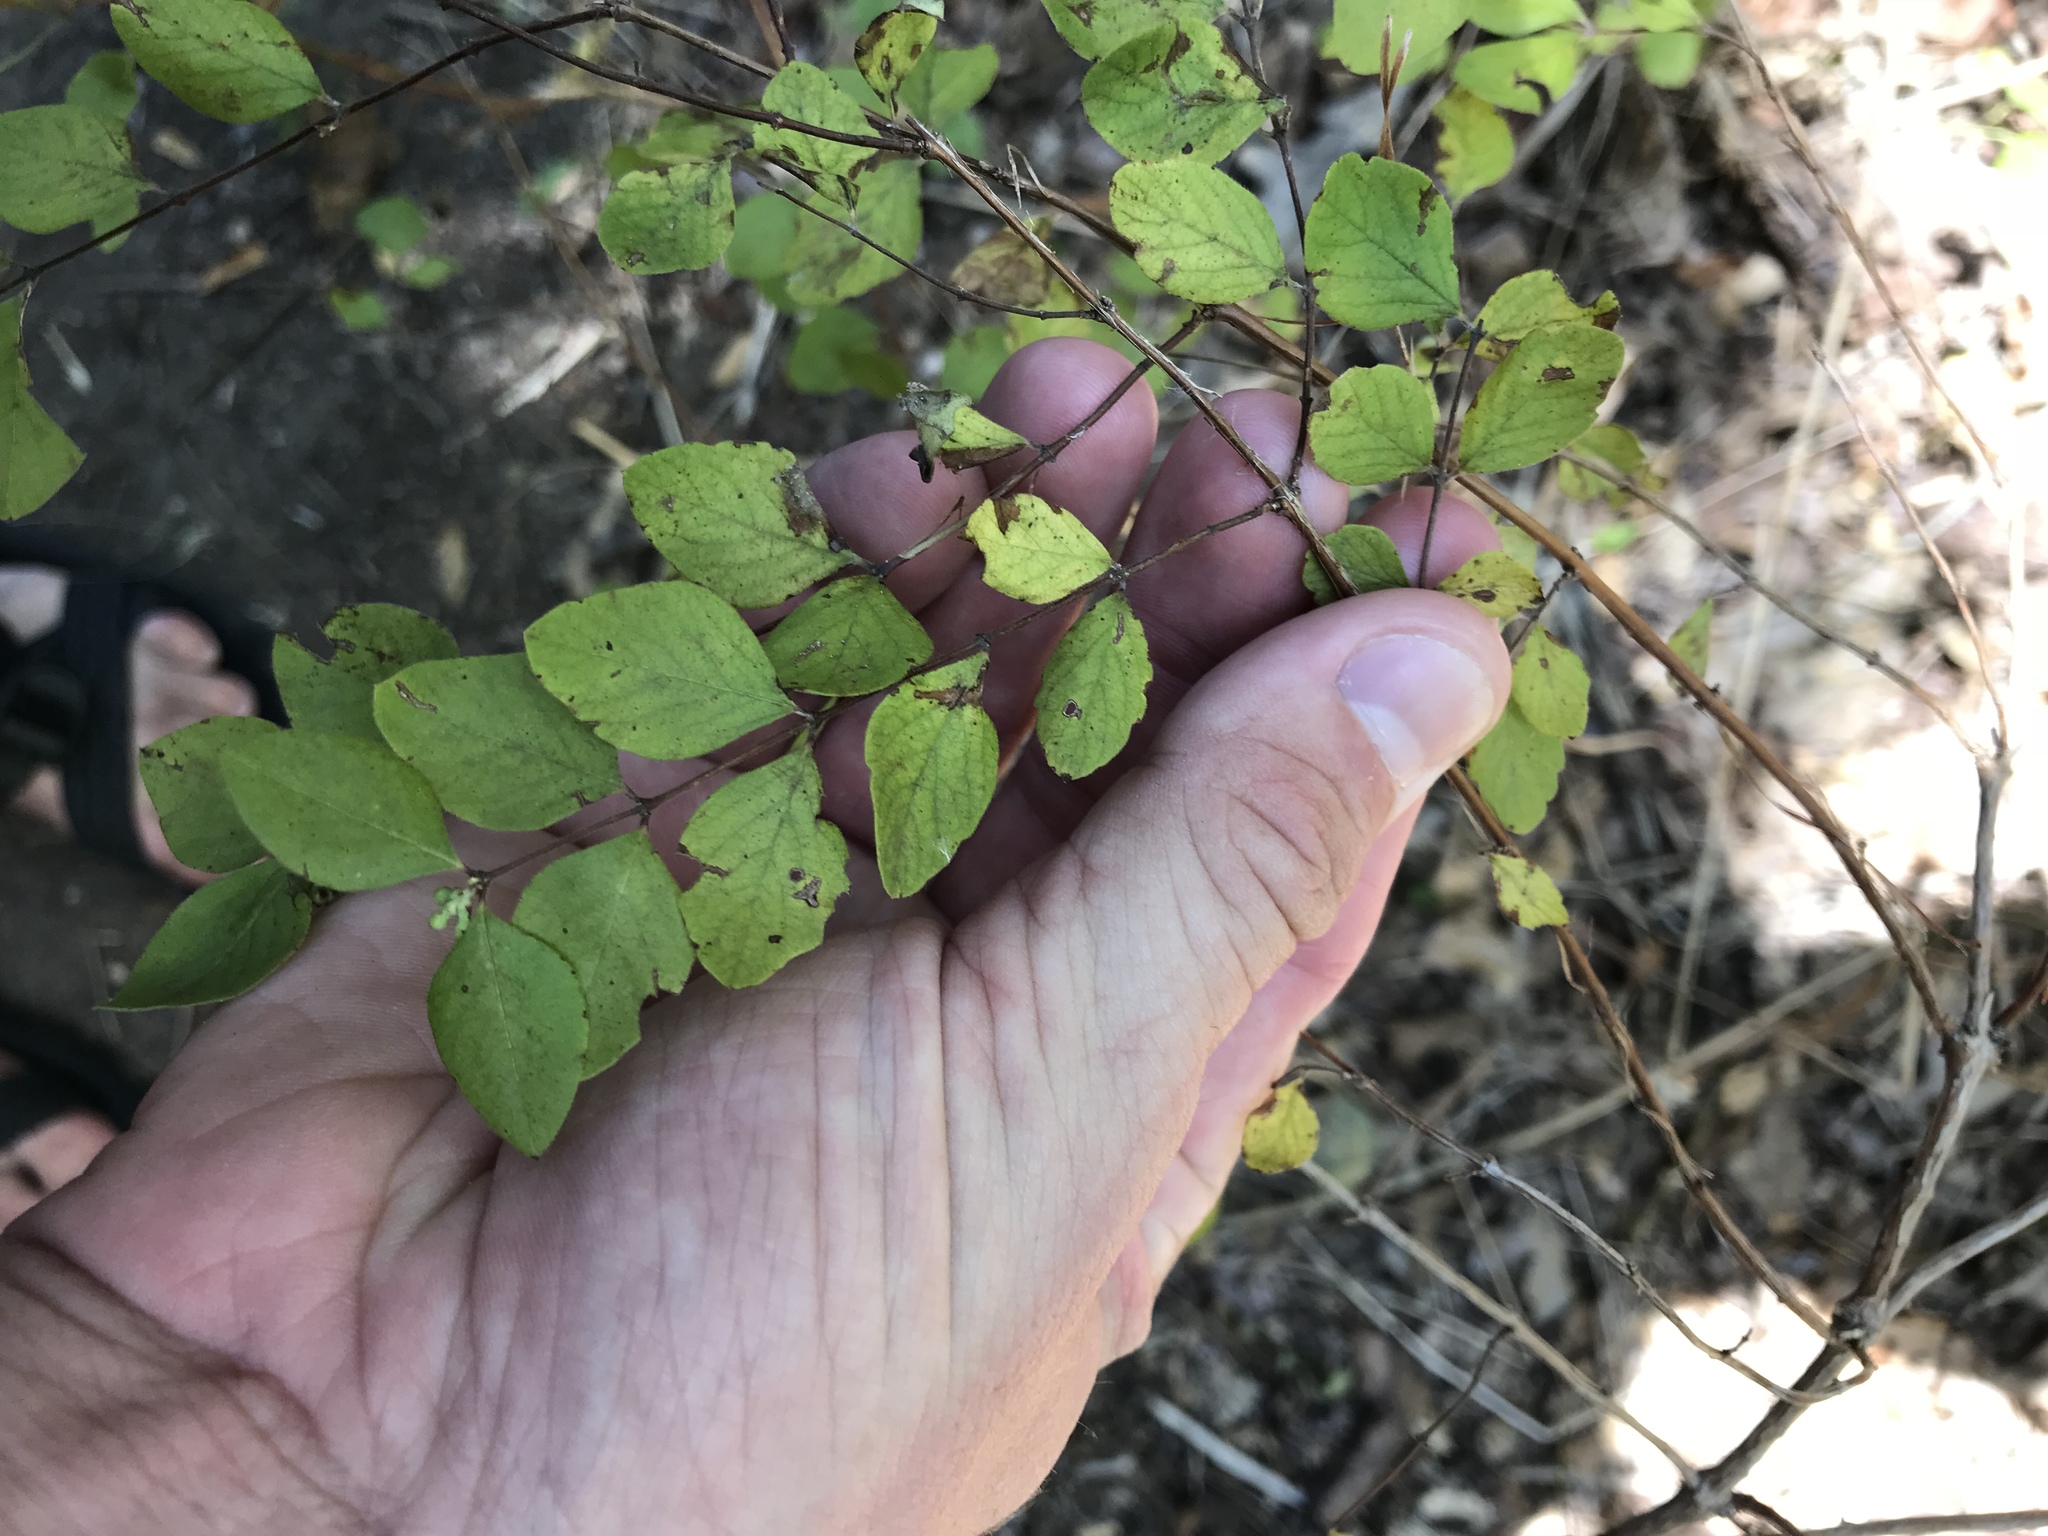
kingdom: Plantae
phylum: Tracheophyta
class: Magnoliopsida
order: Dipsacales
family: Caprifoliaceae
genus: Symphoricarpos
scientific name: Symphoricarpos orbiculatus
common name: Coralberry
